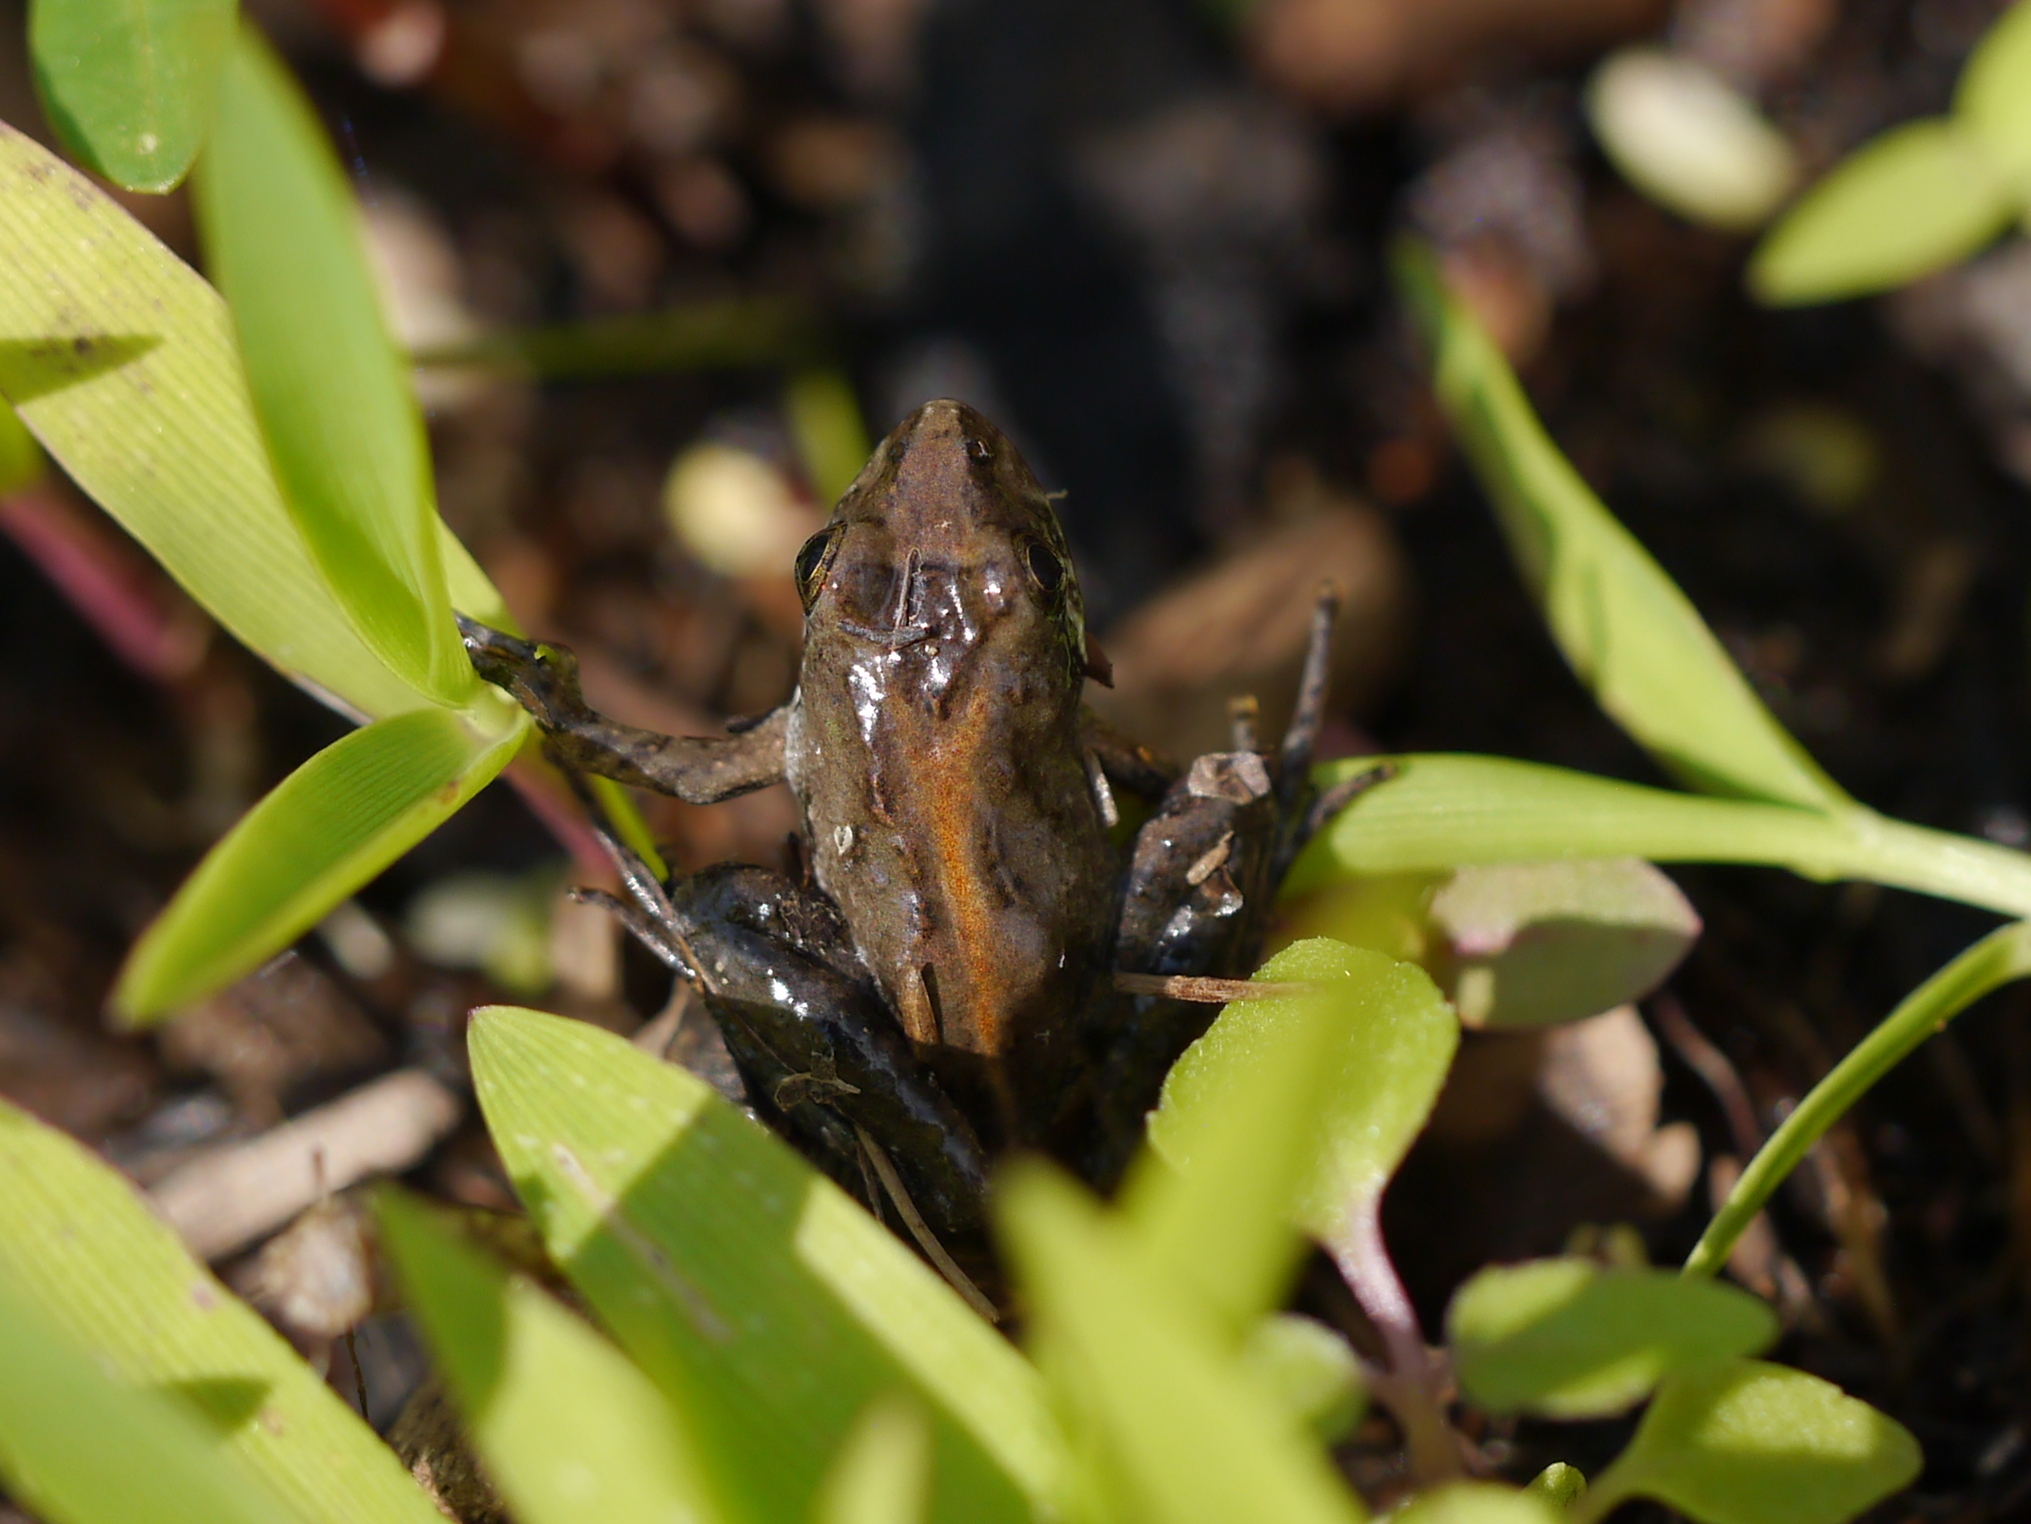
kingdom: Animalia
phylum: Chordata
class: Amphibia
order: Anura
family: Hylidae
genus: Acris
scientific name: Acris gryllus
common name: Southern cricket frog
